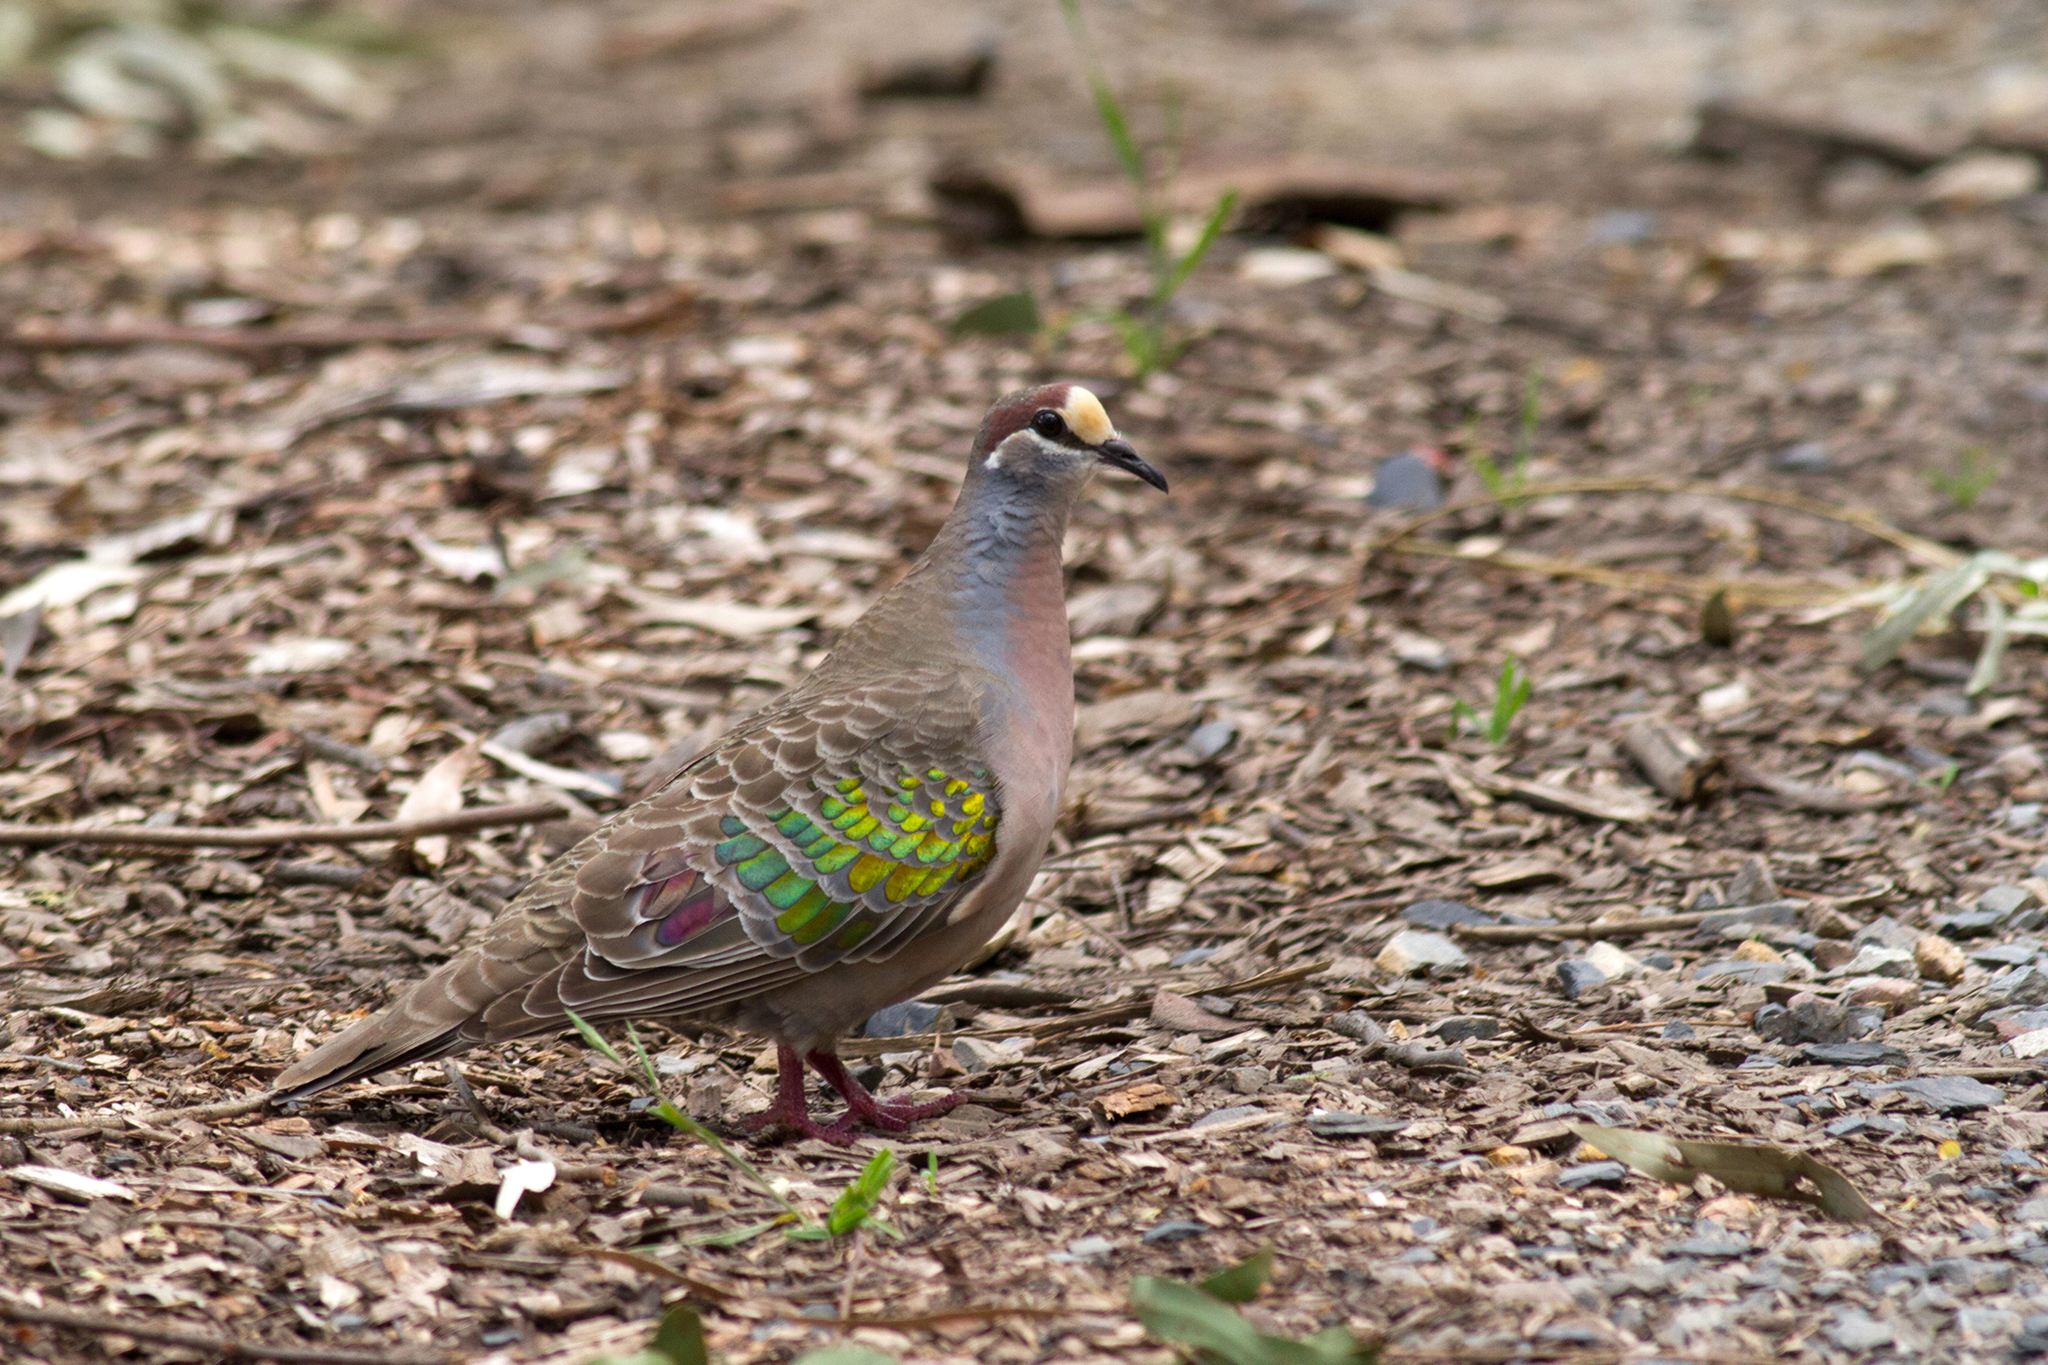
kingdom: Animalia
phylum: Chordata
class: Aves
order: Columbiformes
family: Columbidae
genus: Phaps
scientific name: Phaps chalcoptera
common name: Common bronzewing
